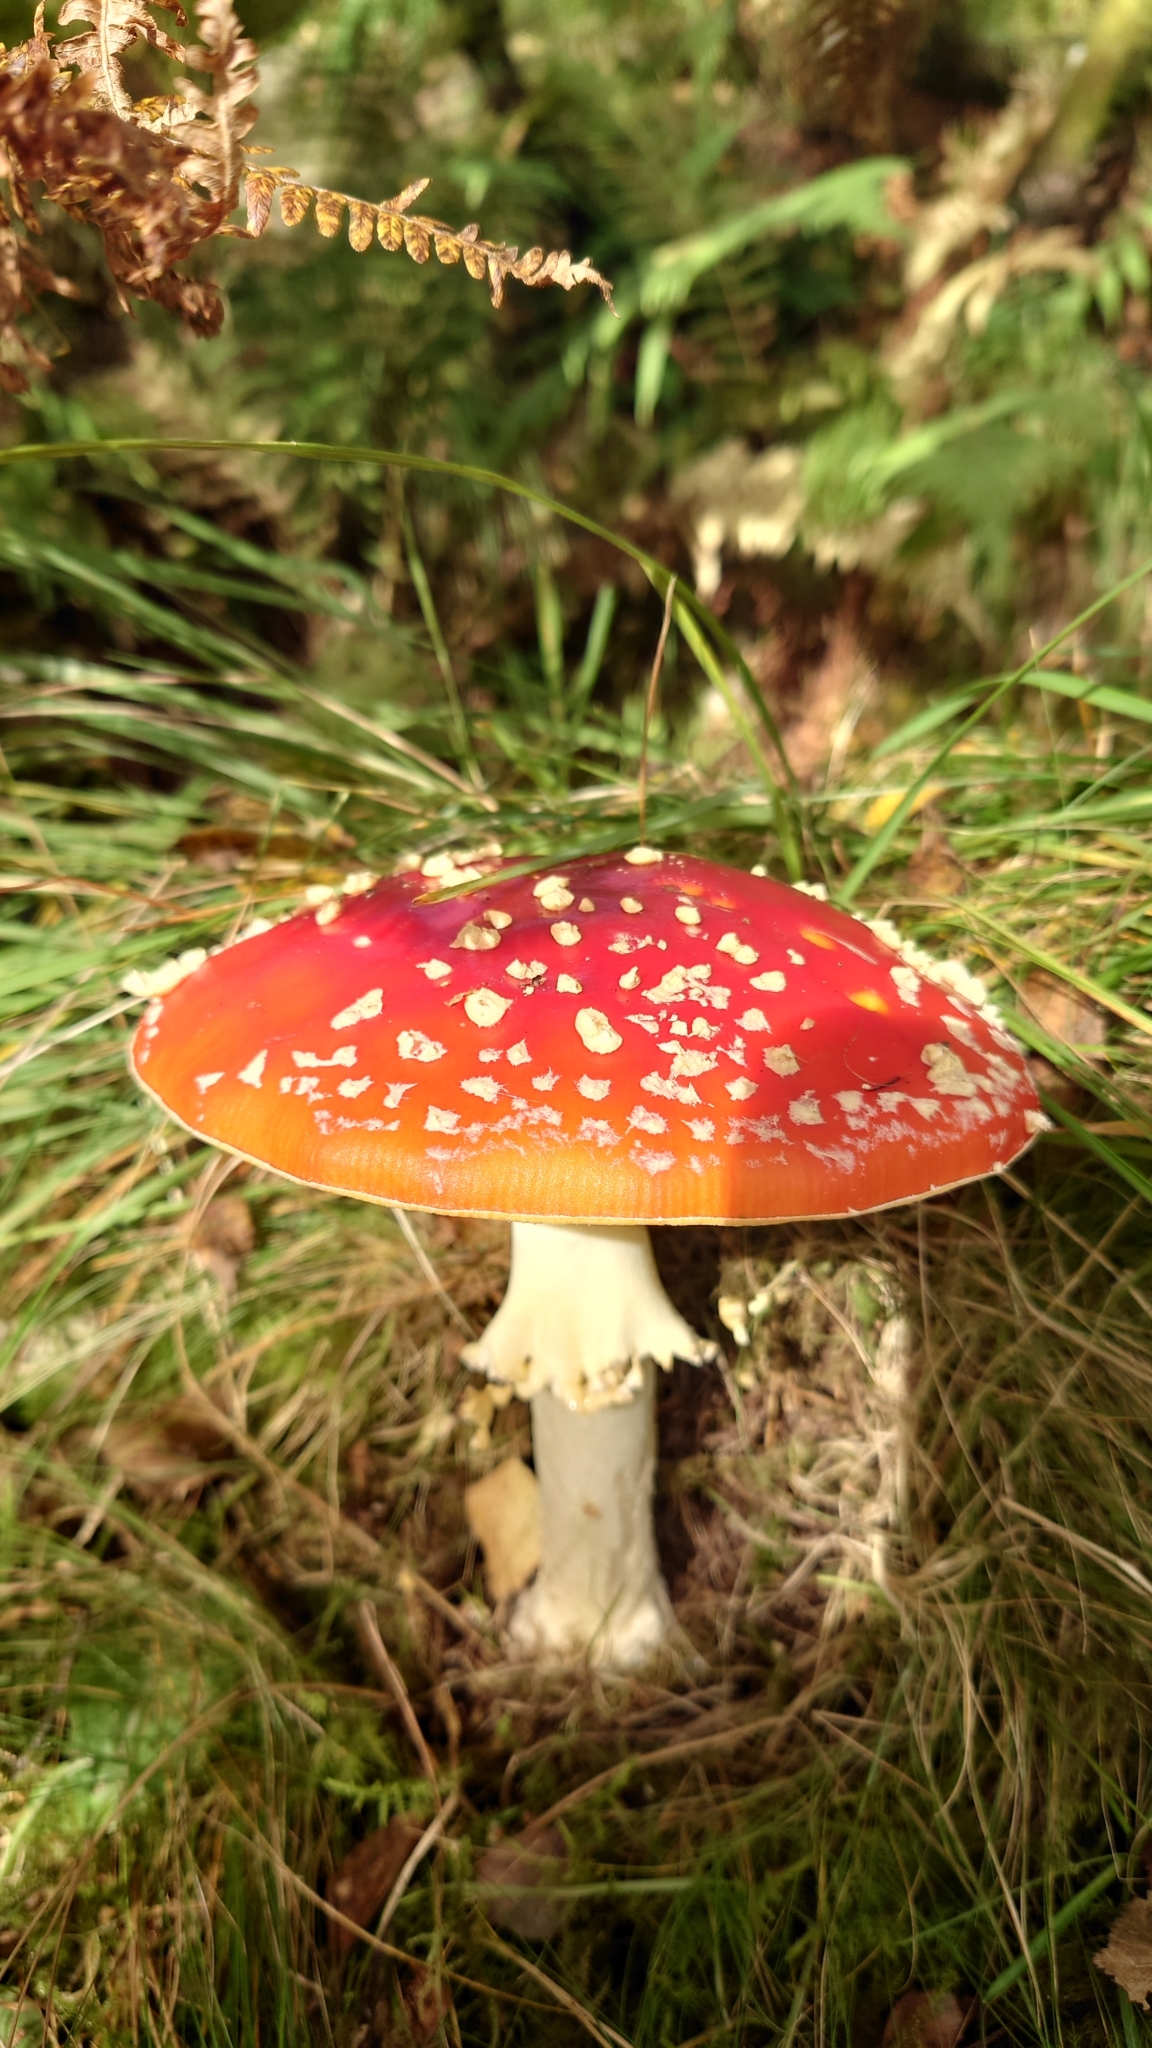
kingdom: Fungi
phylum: Basidiomycota
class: Agaricomycetes
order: Agaricales
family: Amanitaceae
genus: Amanita
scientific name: Amanita muscaria
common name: Fly agaric
